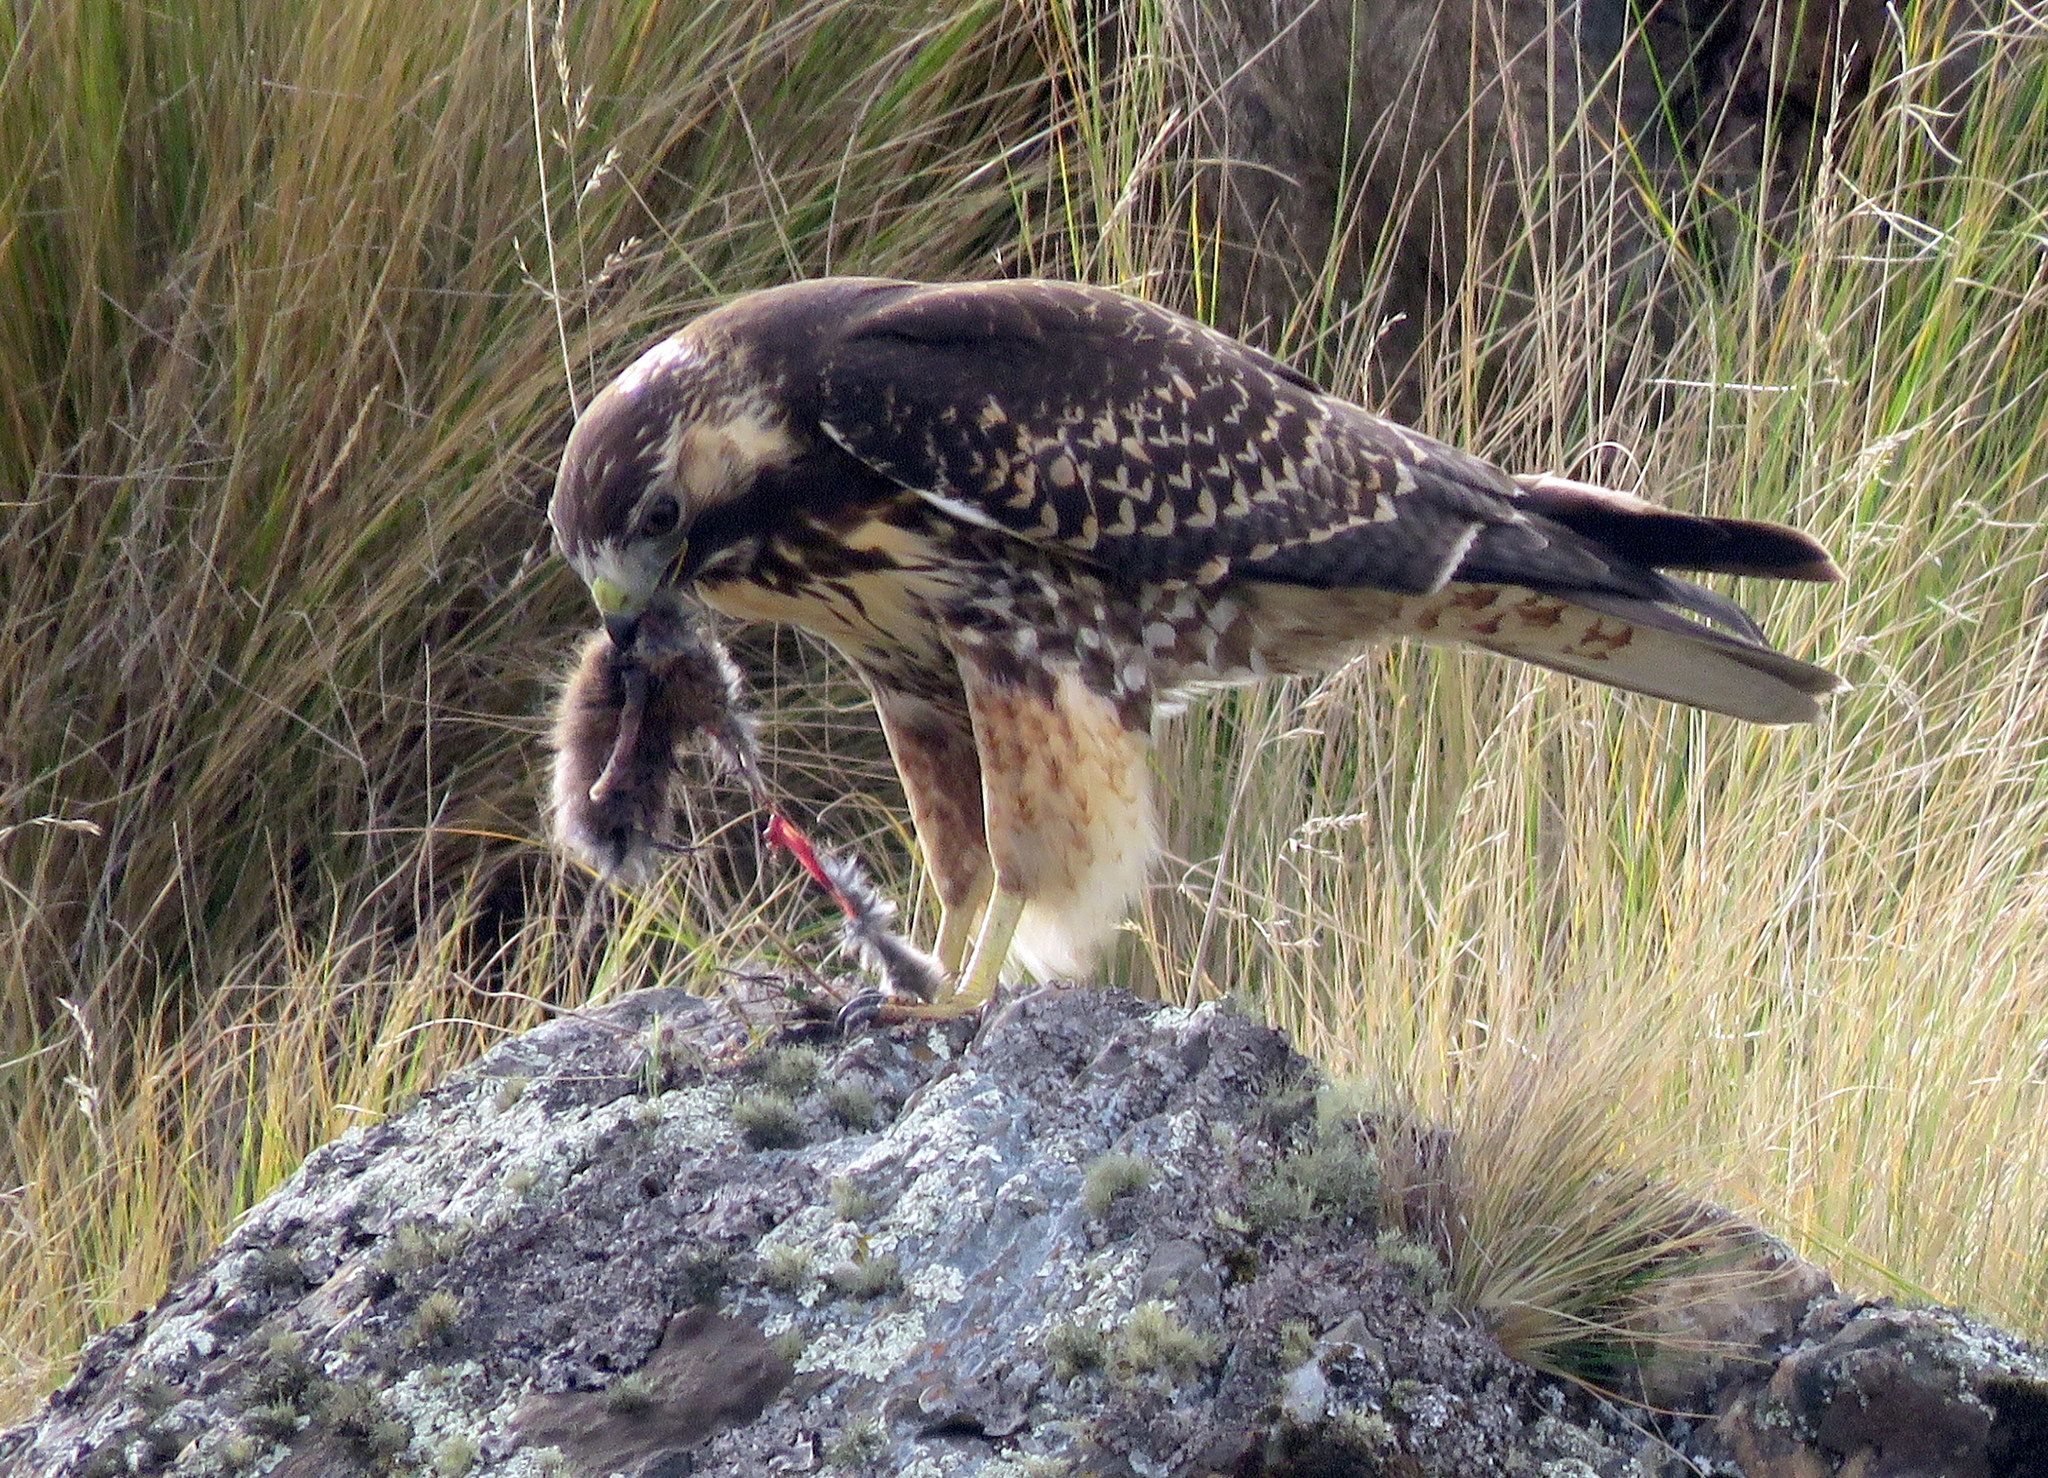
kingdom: Animalia
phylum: Chordata
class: Aves
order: Accipitriformes
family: Accipitridae
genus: Buteo
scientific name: Buteo polyosoma
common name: Variable hawk
